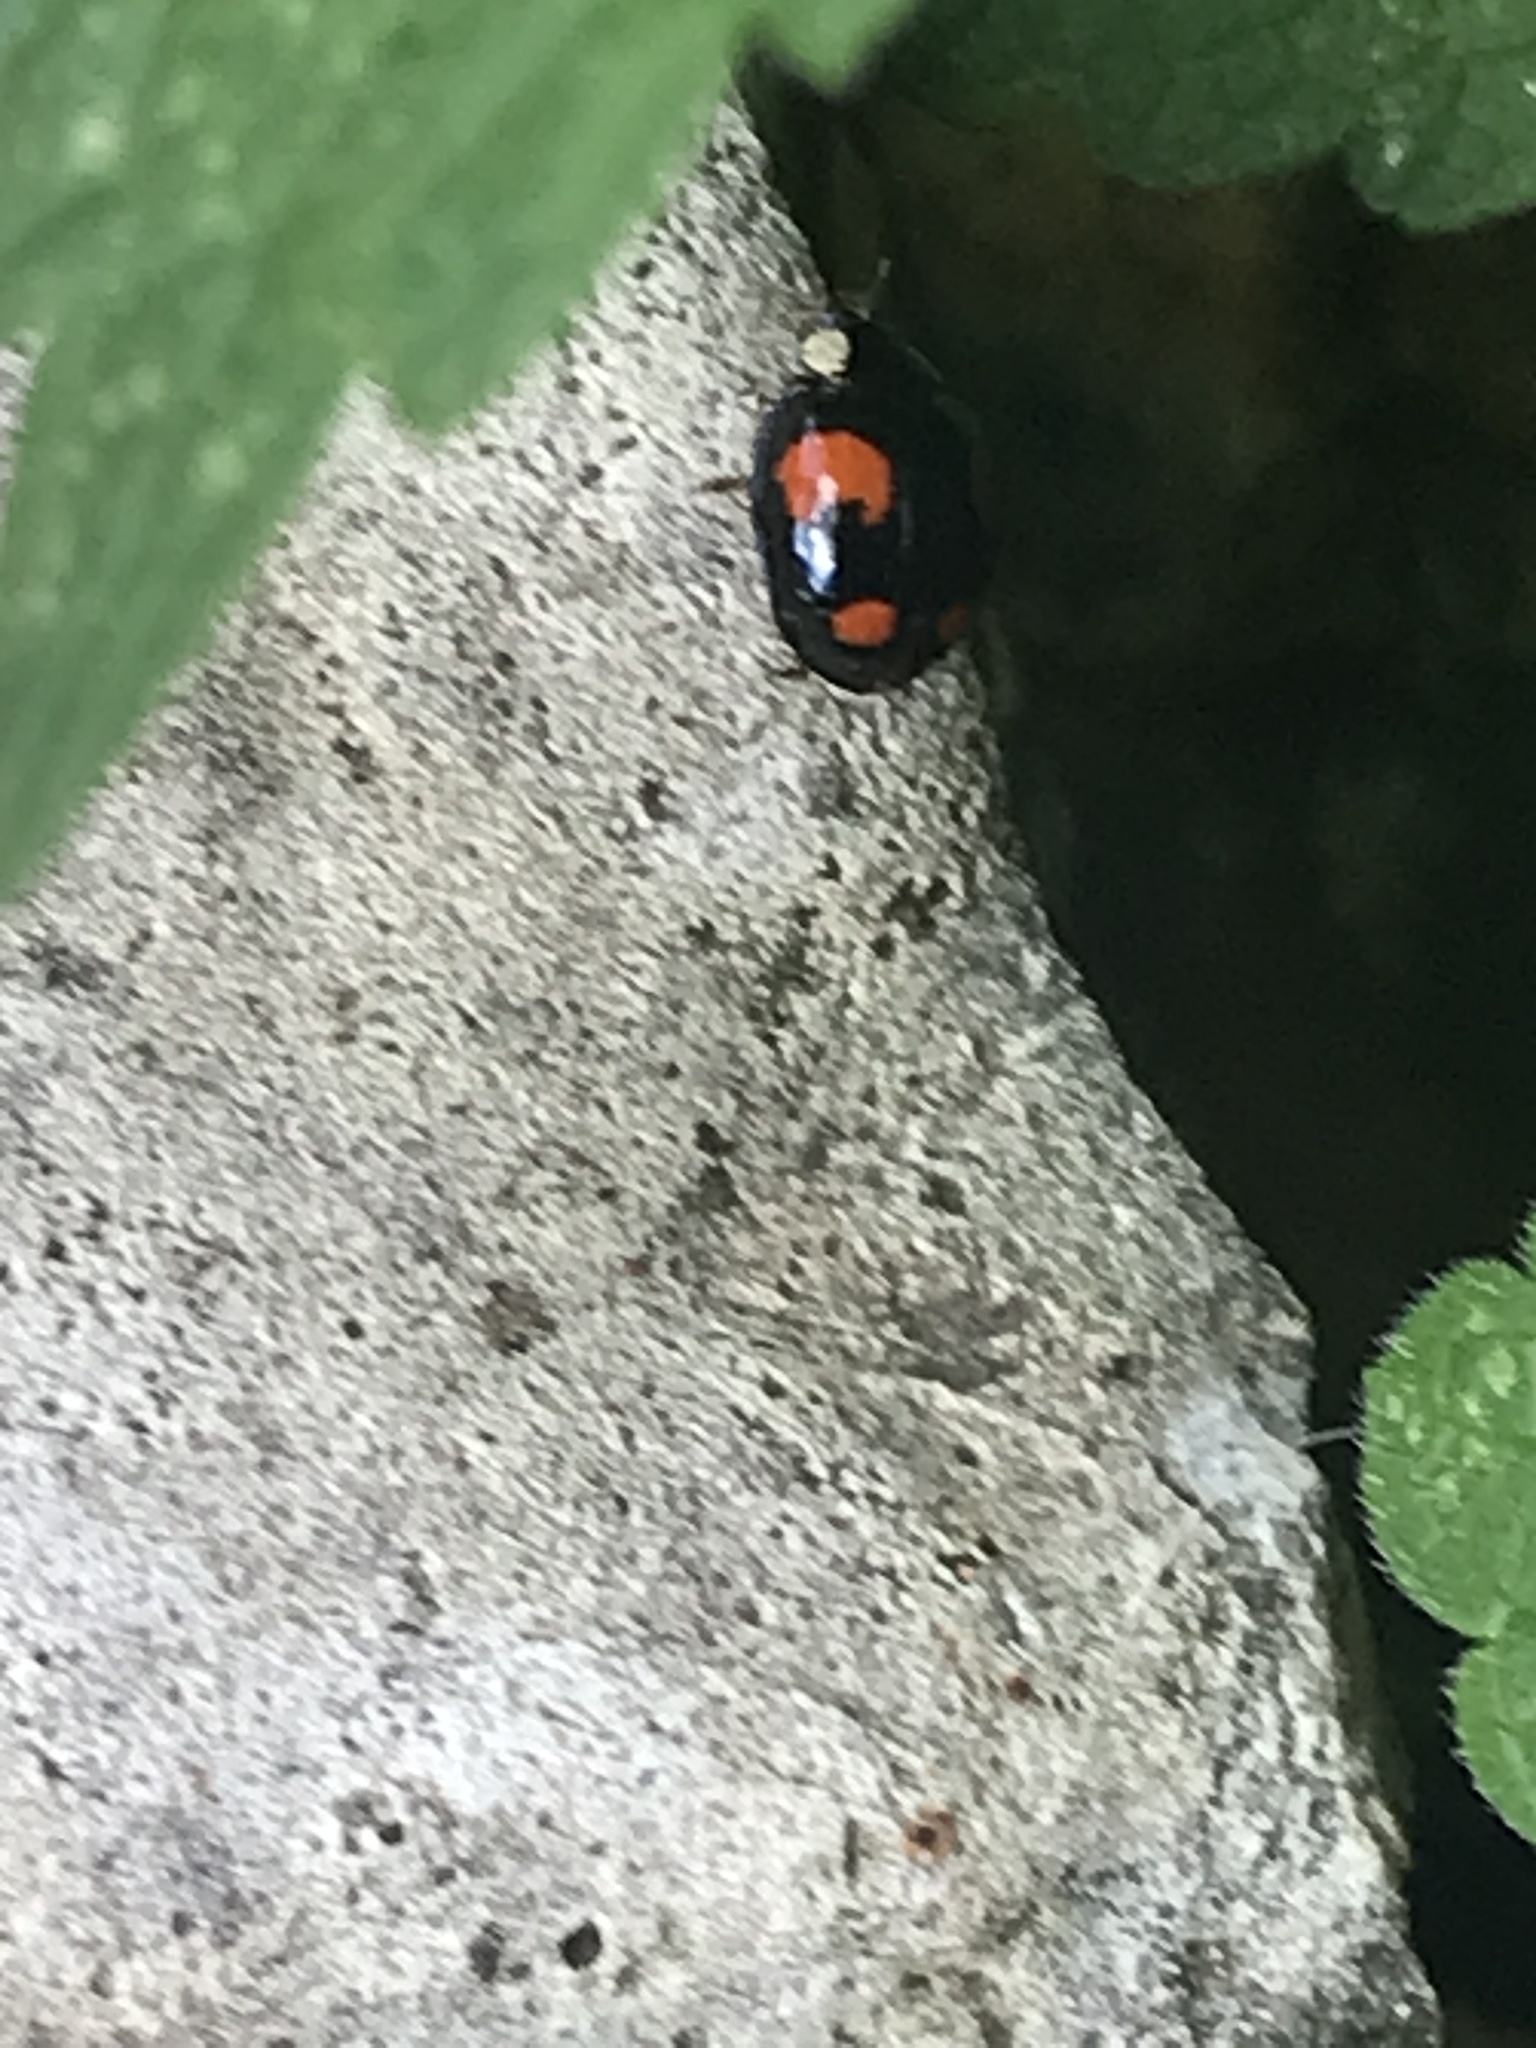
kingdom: Animalia
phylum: Arthropoda
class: Insecta
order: Coleoptera
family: Coccinellidae
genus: Harmonia
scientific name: Harmonia axyridis
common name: Harlequin ladybird
